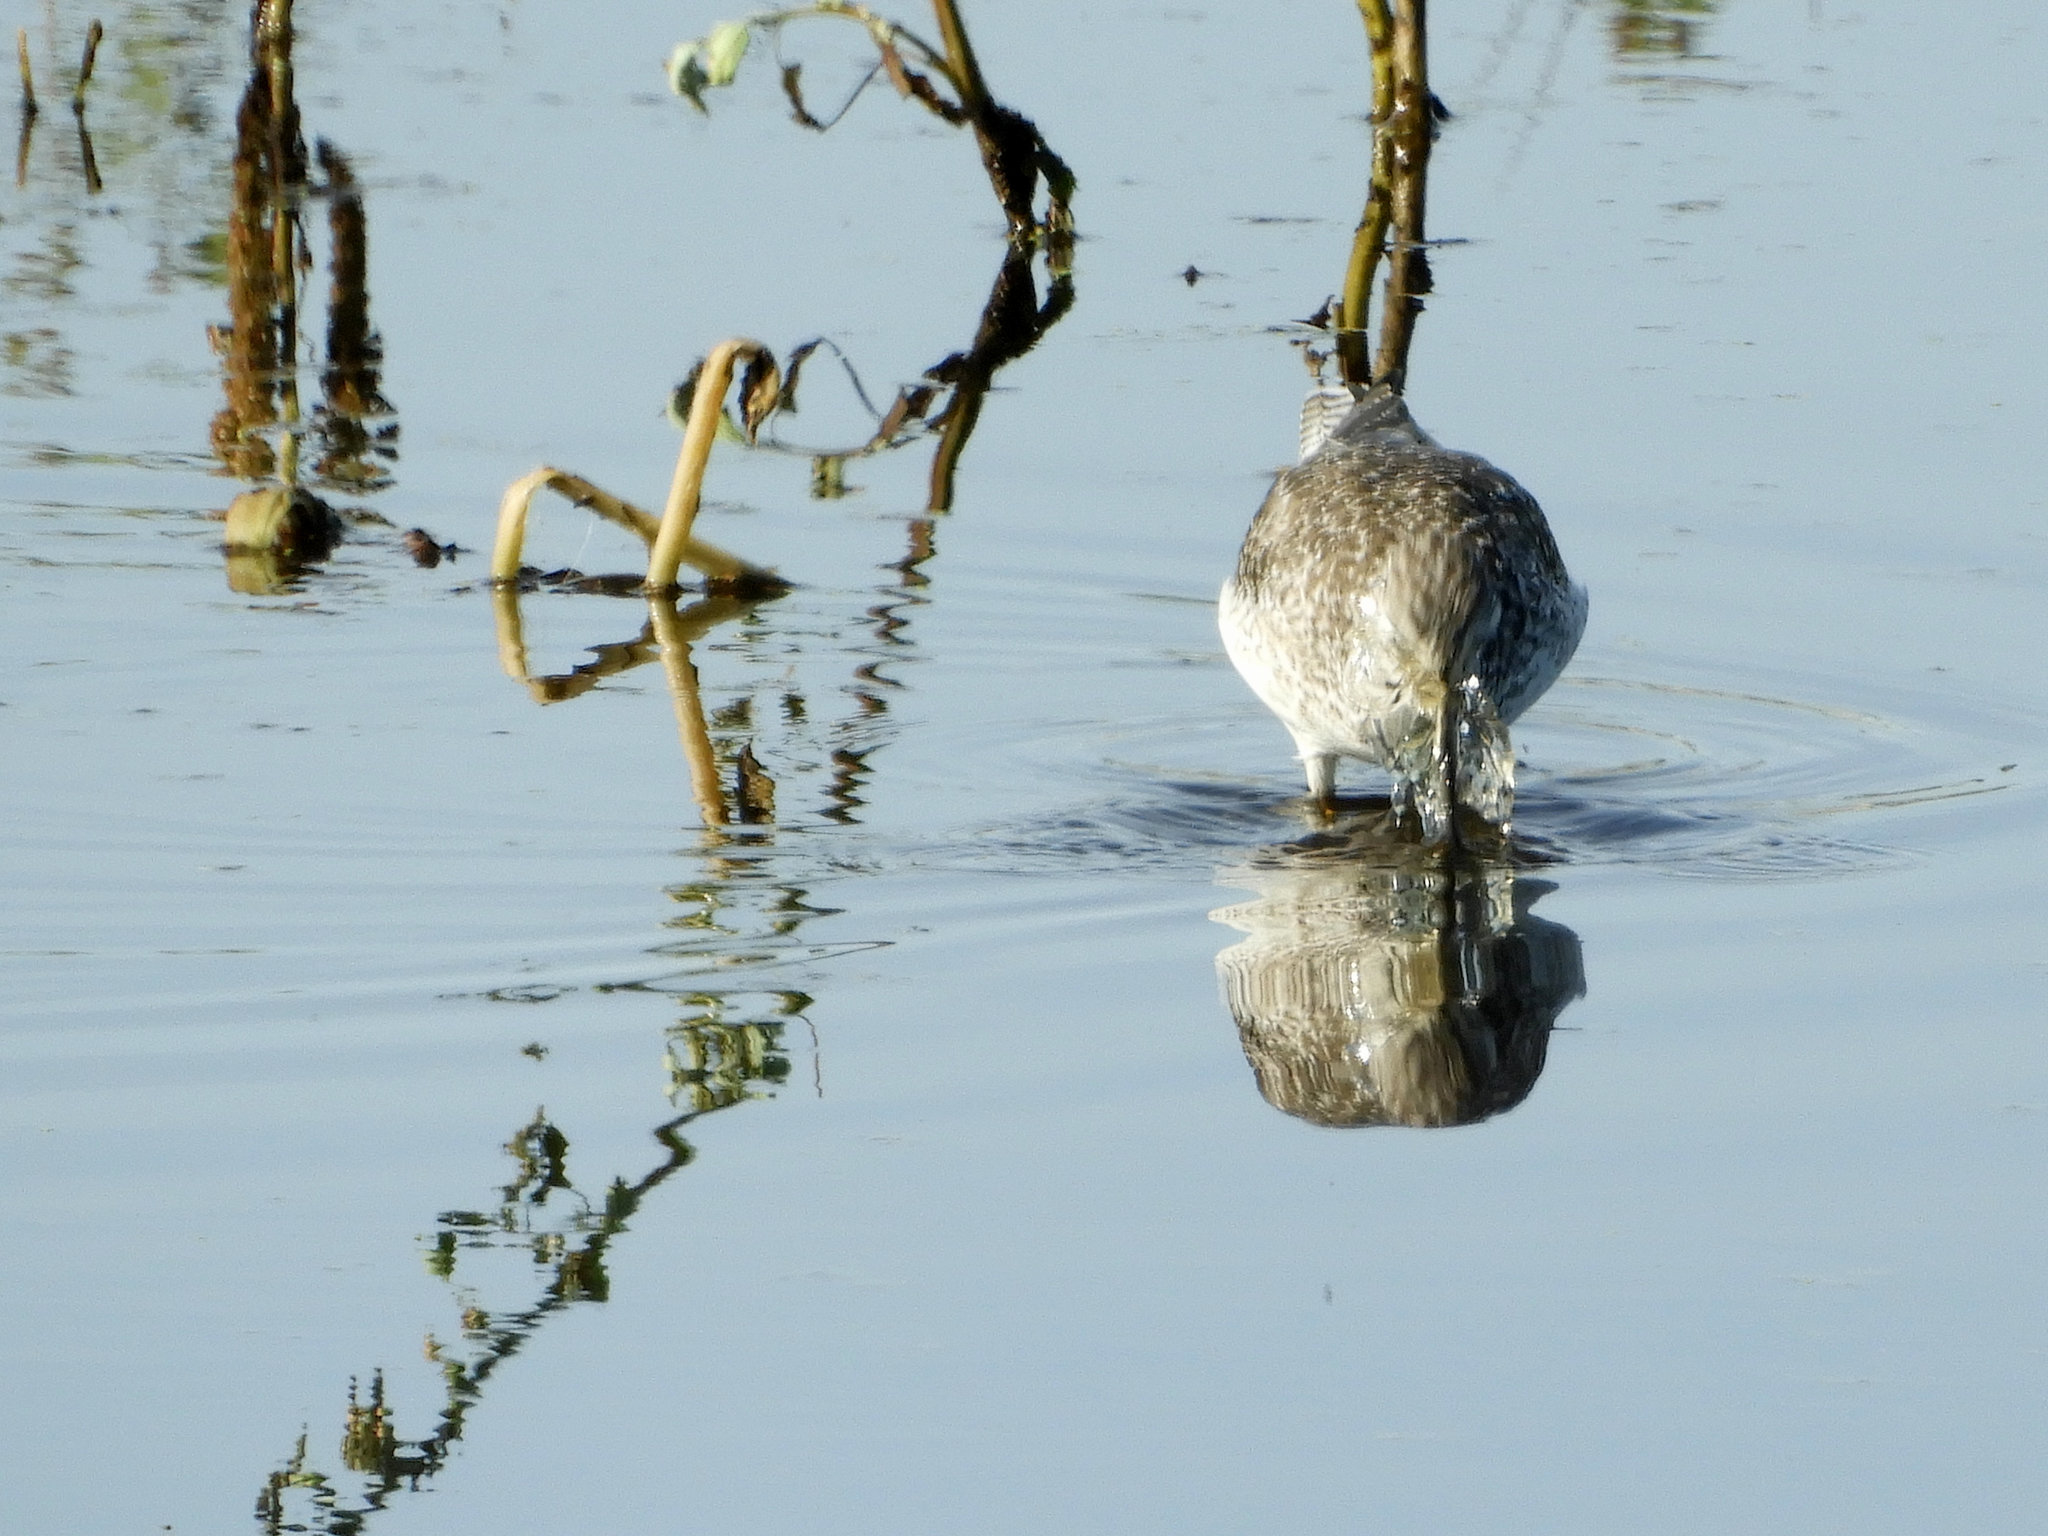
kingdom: Animalia
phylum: Chordata
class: Aves
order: Charadriiformes
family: Scolopacidae
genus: Tringa
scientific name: Tringa melanoleuca
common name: Greater yellowlegs
